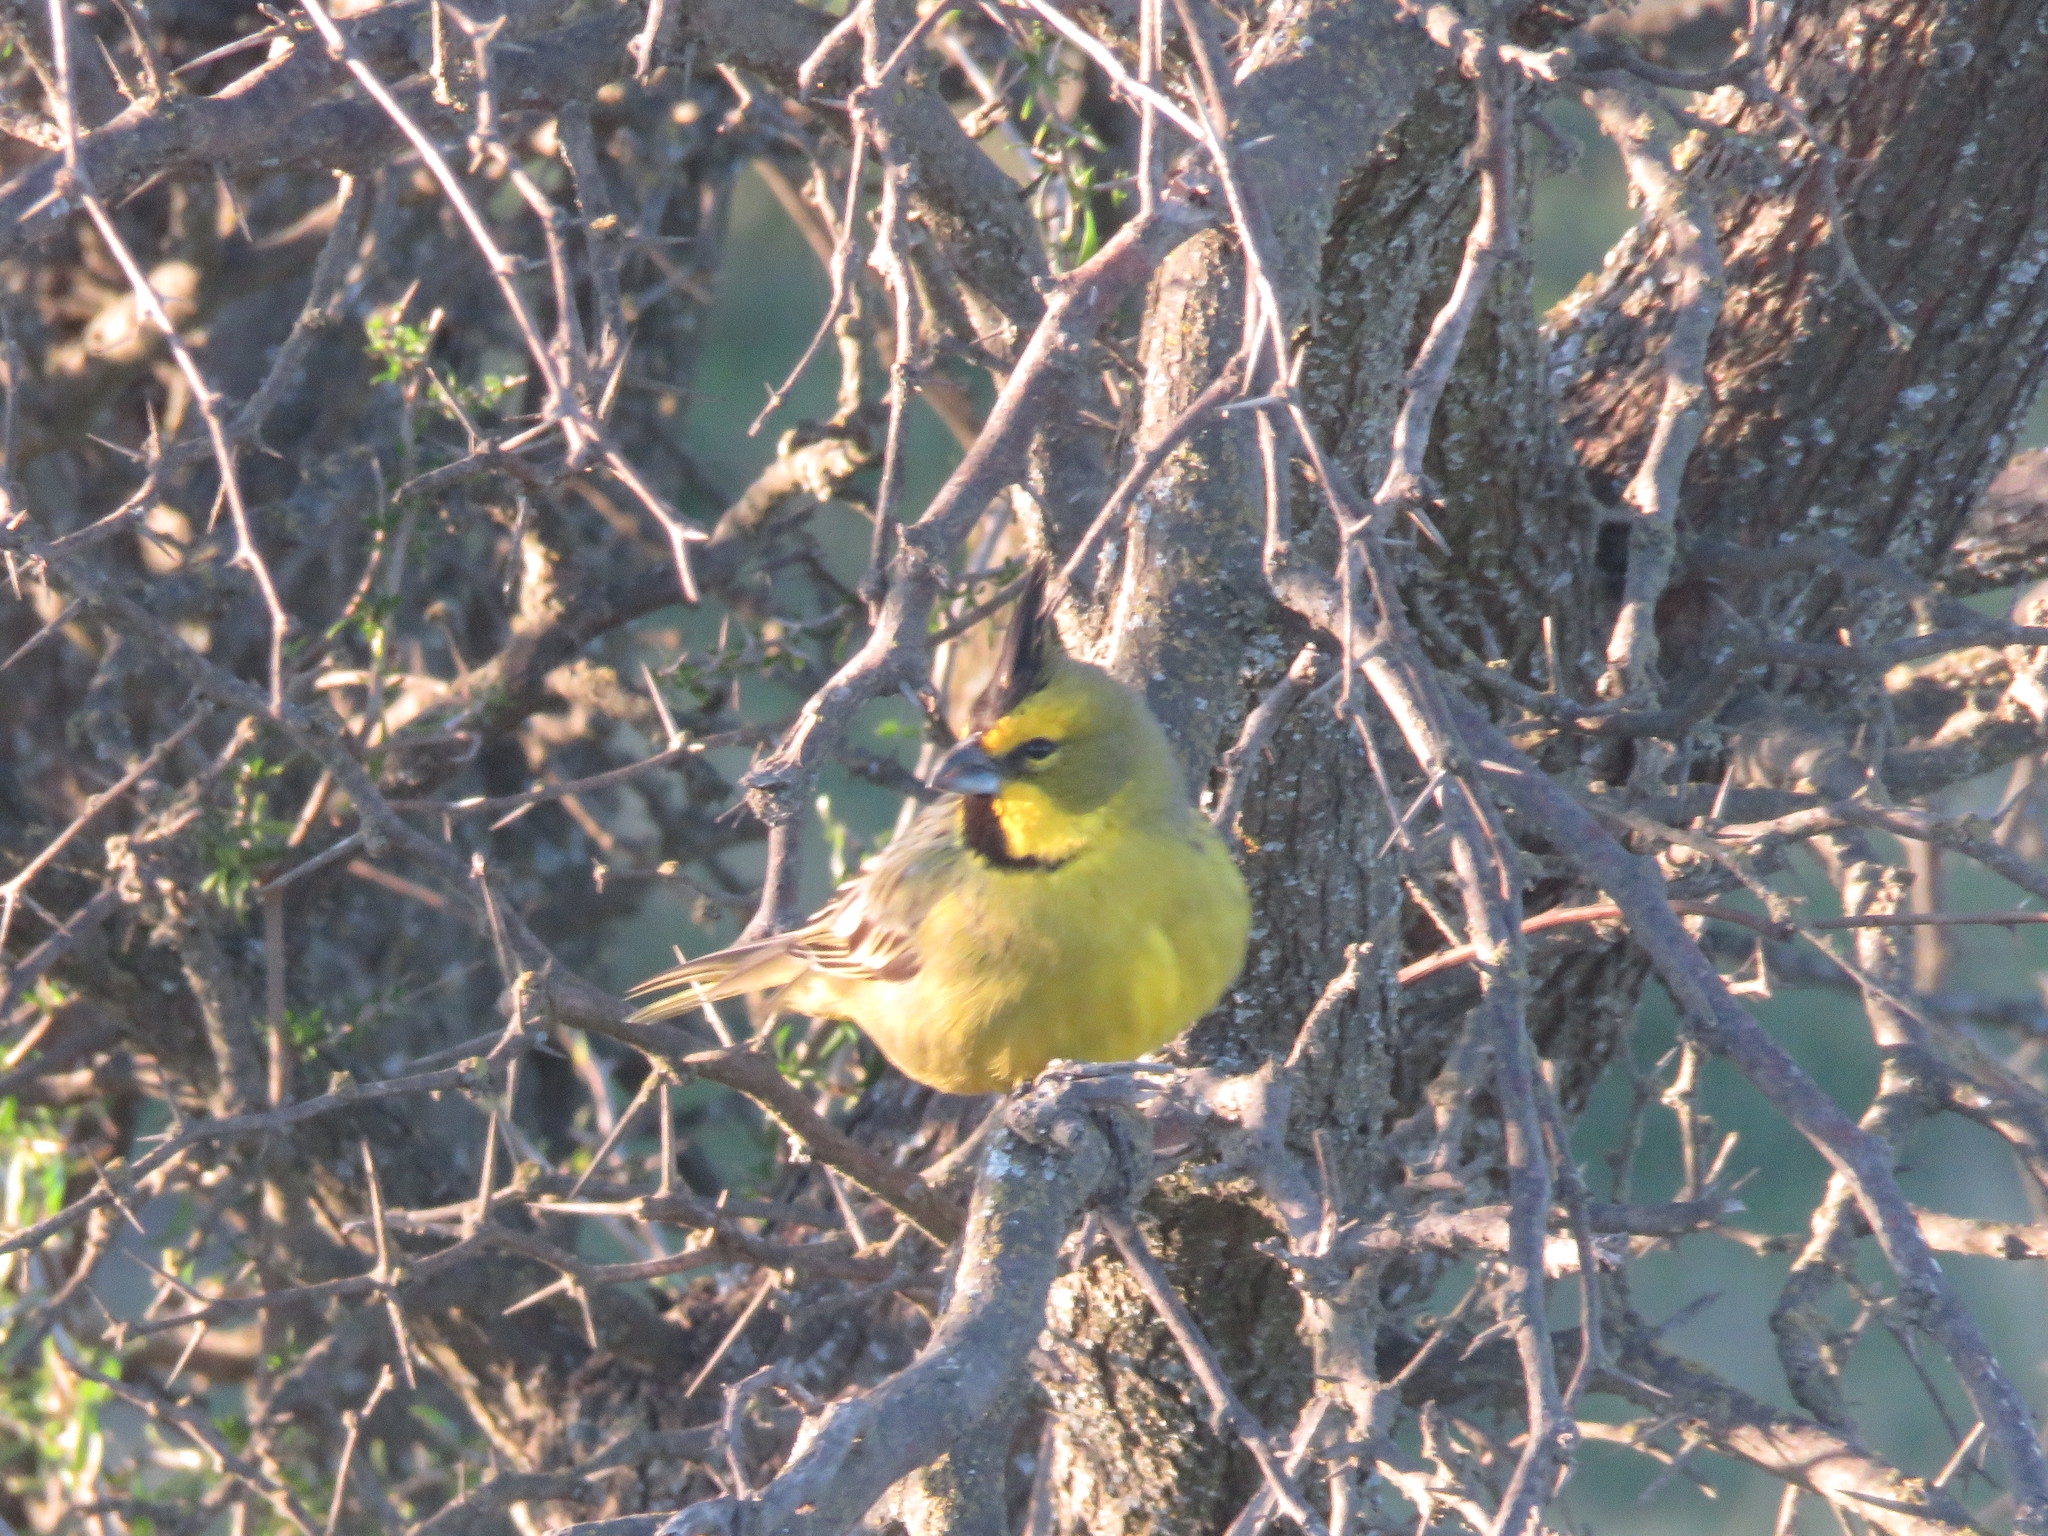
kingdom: Animalia
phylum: Chordata
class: Aves
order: Passeriformes
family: Thraupidae
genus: Gubernatrix
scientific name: Gubernatrix cristata
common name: Yellow cardinal
